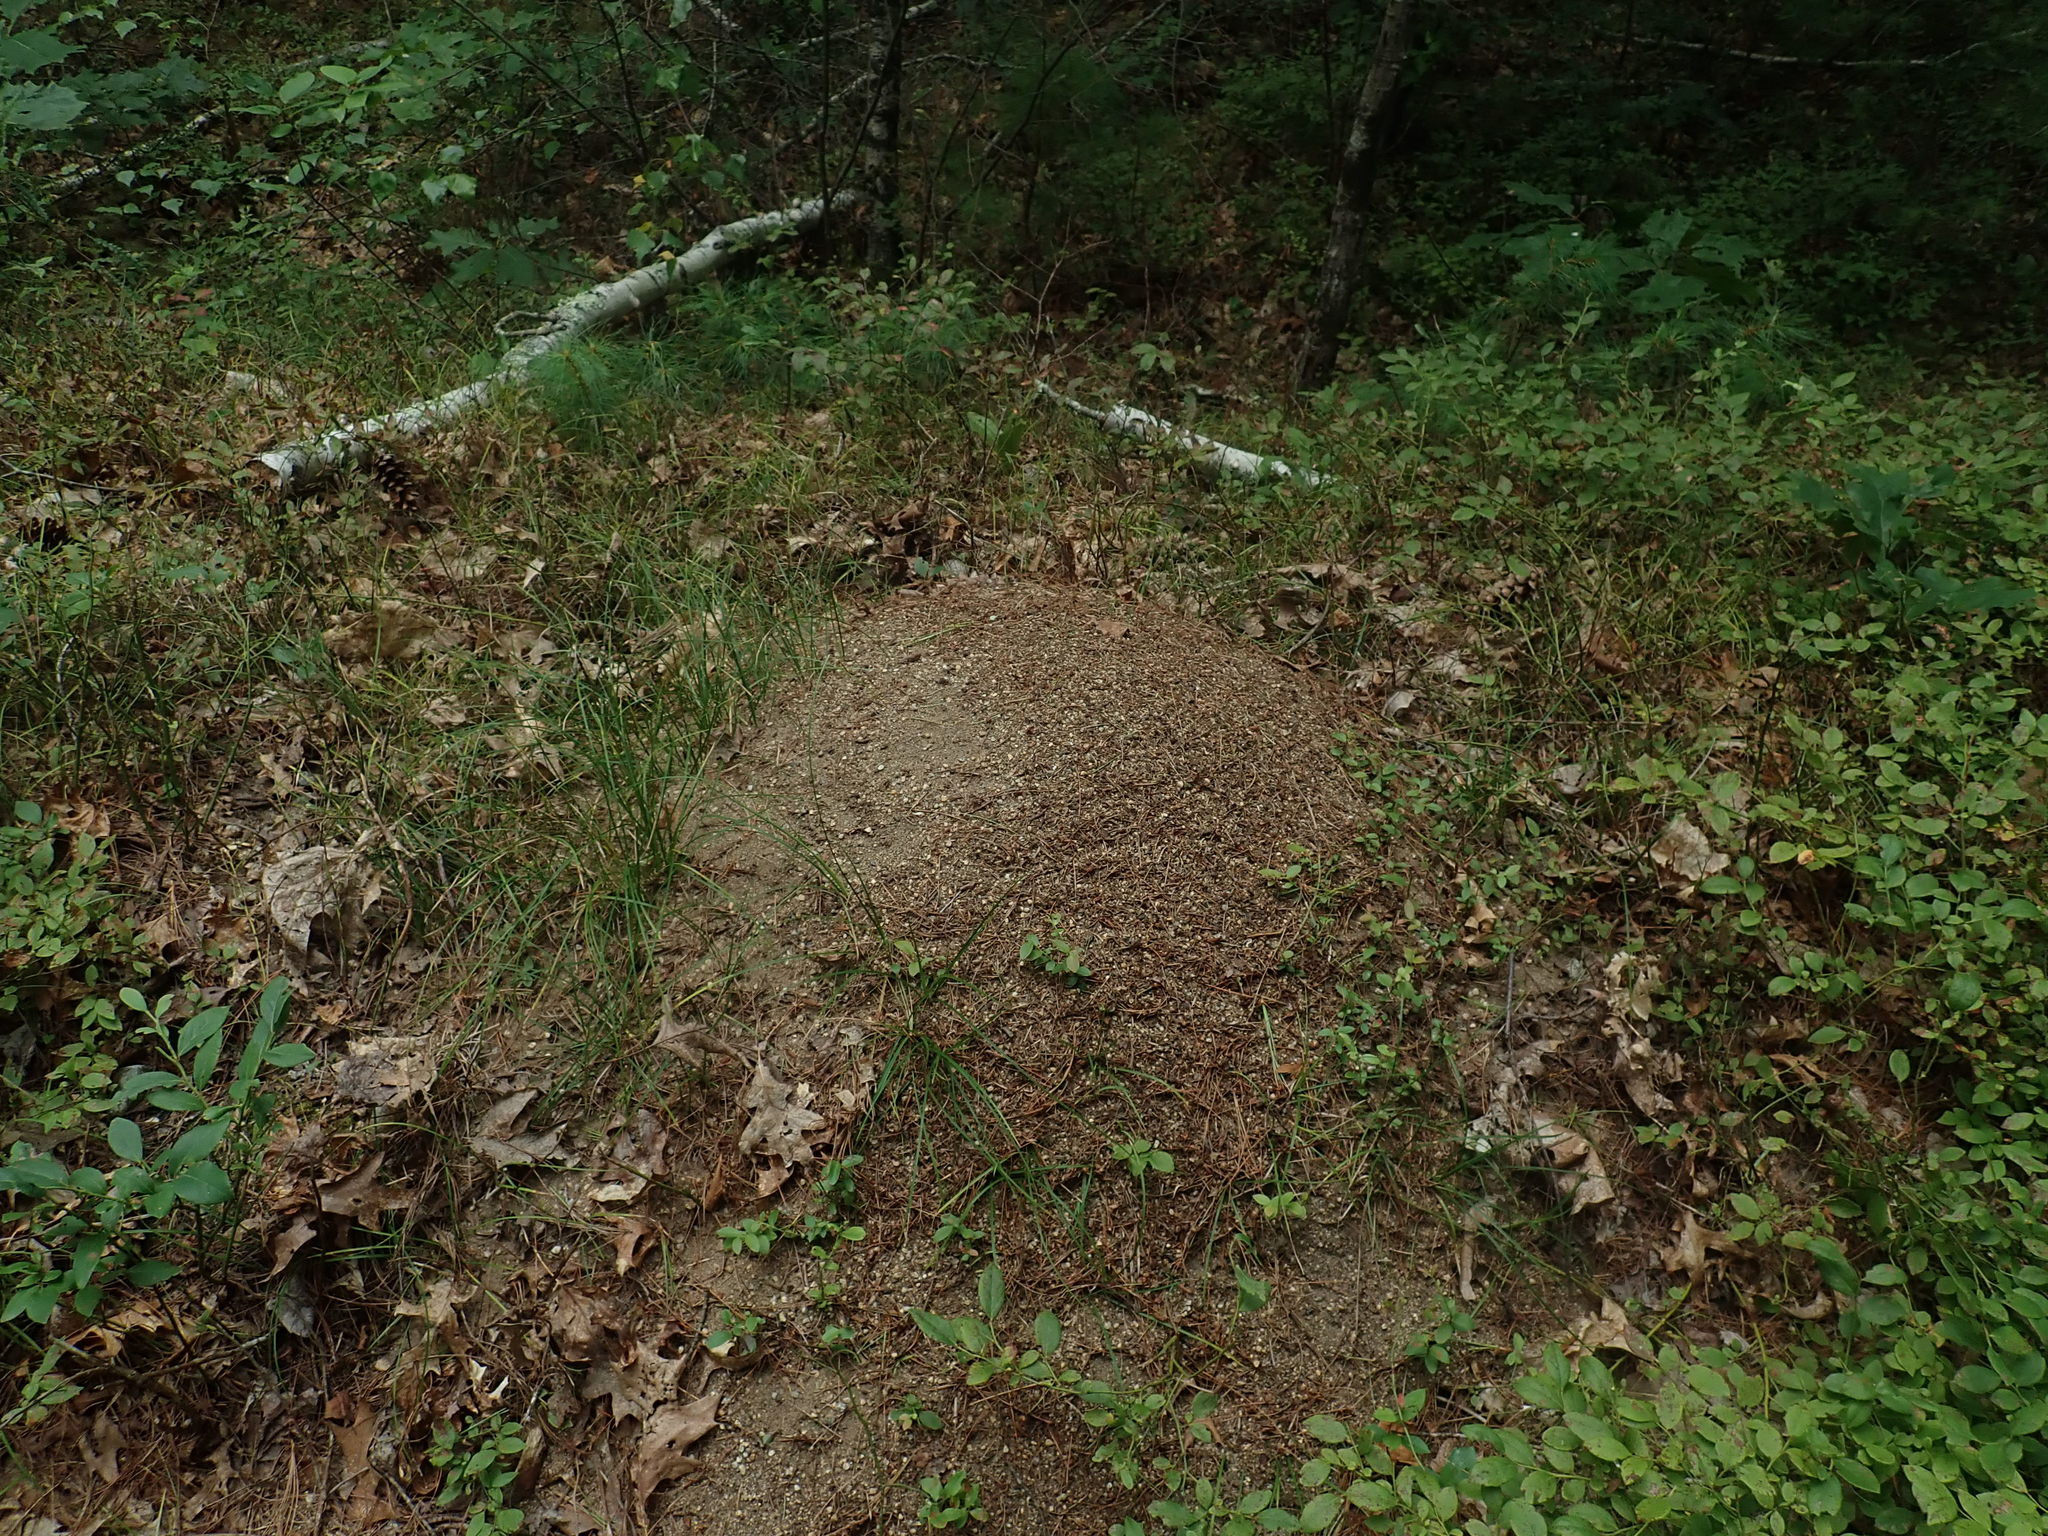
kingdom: Animalia
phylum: Arthropoda
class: Insecta
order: Hymenoptera
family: Formicidae
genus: Formica
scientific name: Formica exsectoides
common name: Allegheny mound ant
